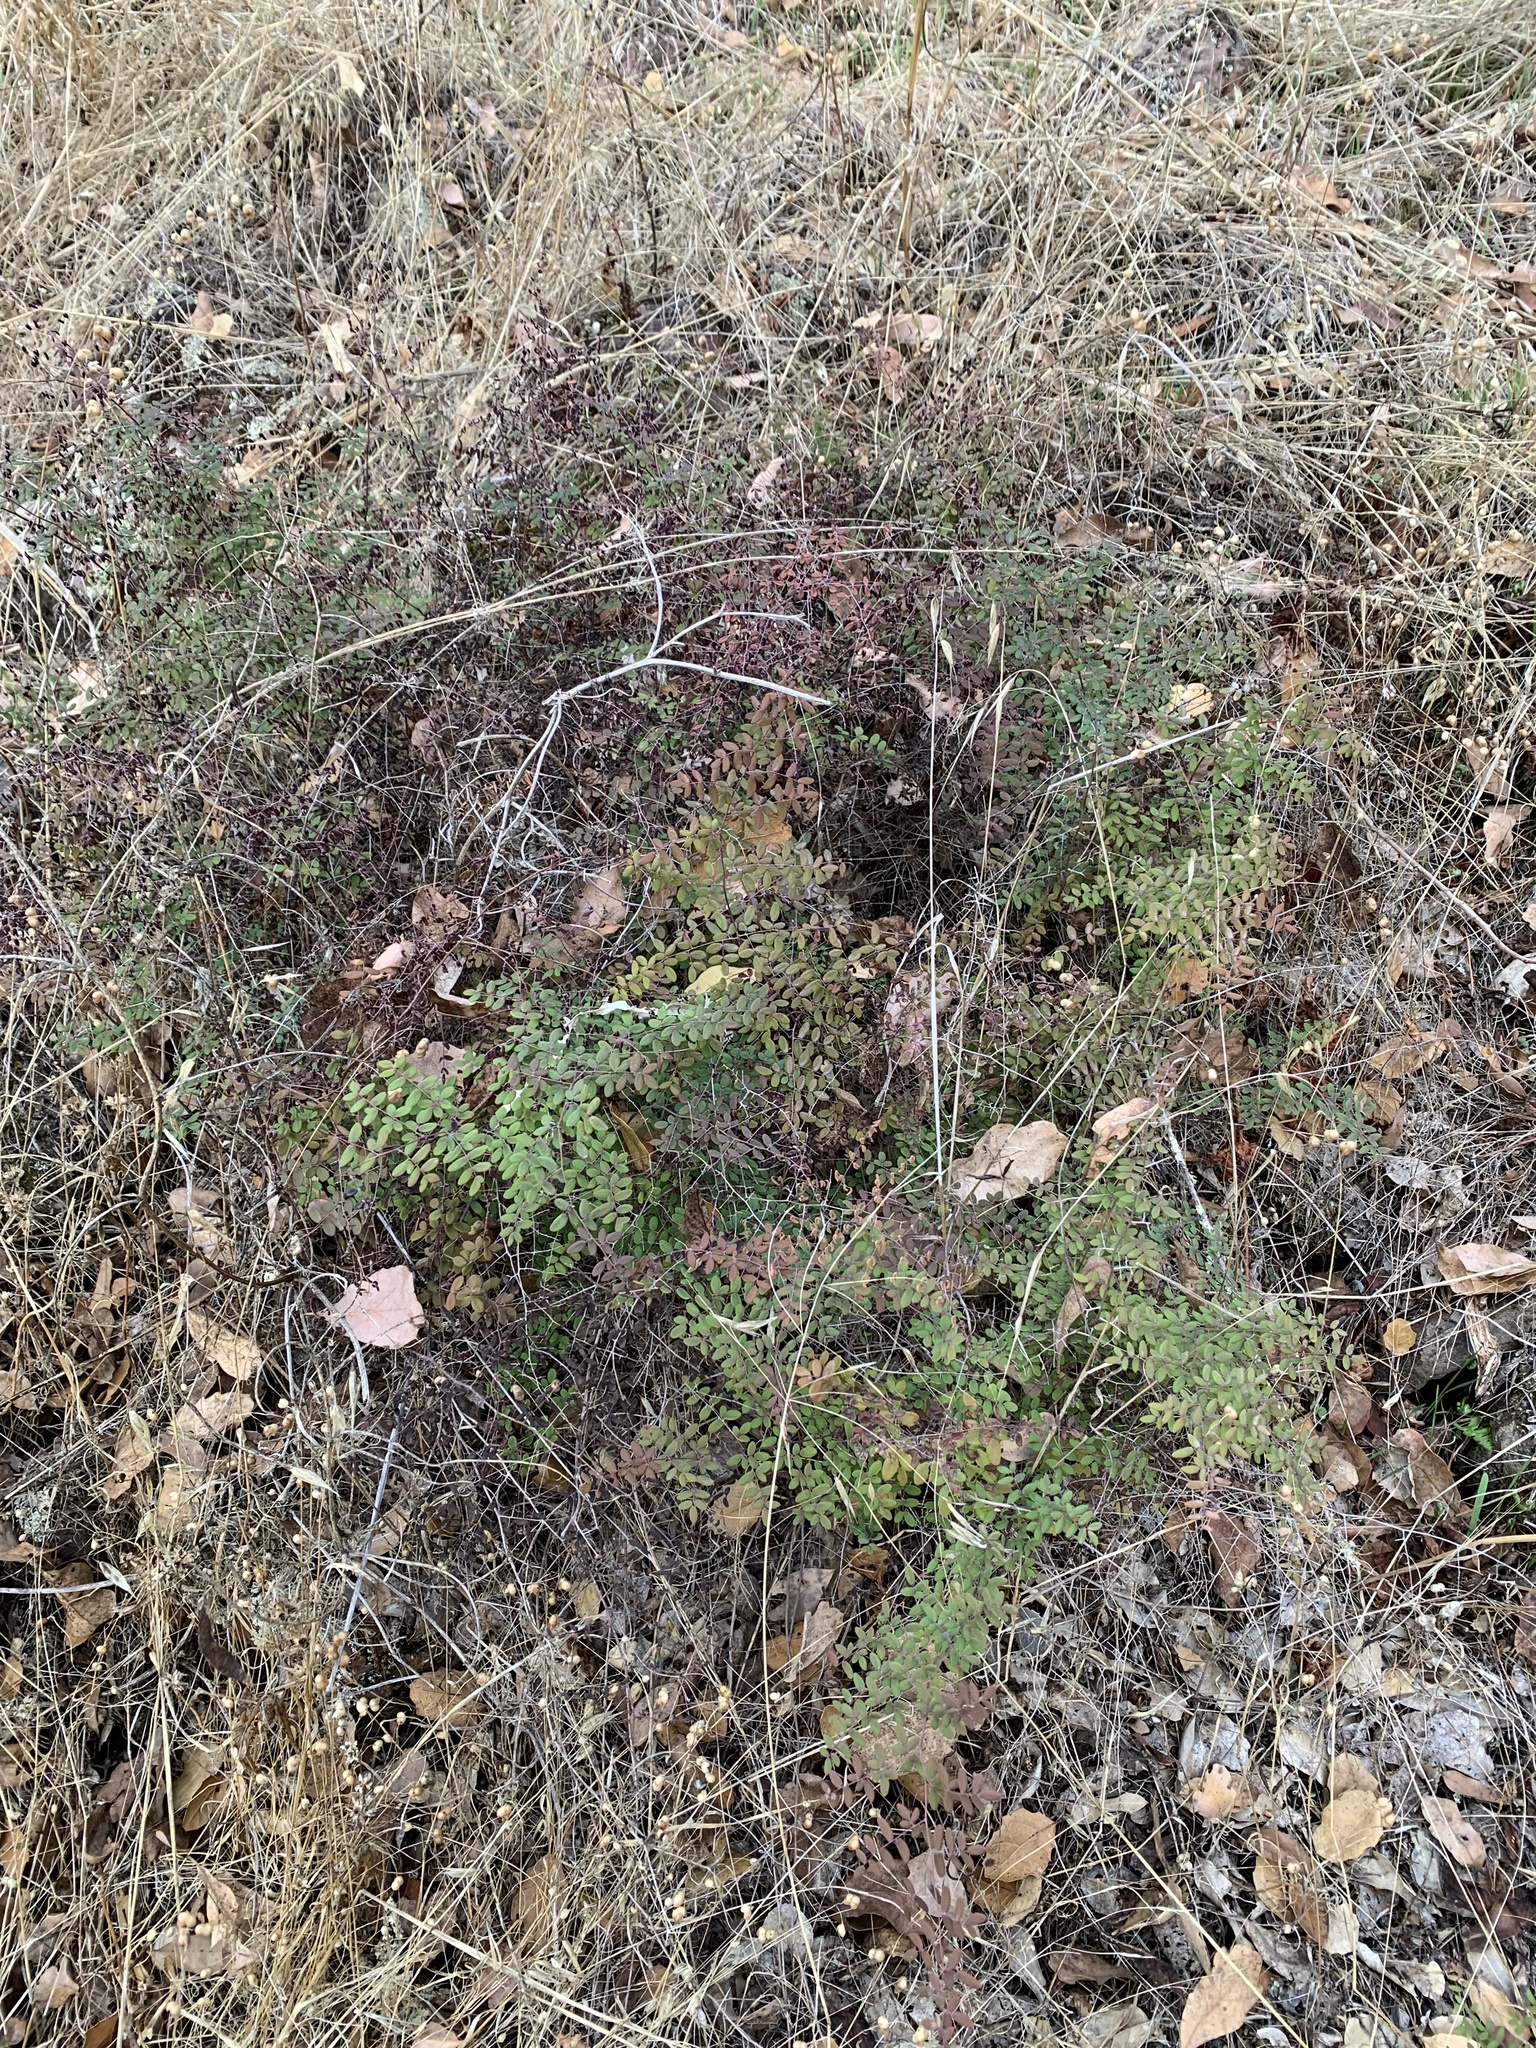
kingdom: Plantae
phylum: Tracheophyta
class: Polypodiopsida
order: Polypodiales
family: Pteridaceae
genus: Pellaea
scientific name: Pellaea andromedifolia
